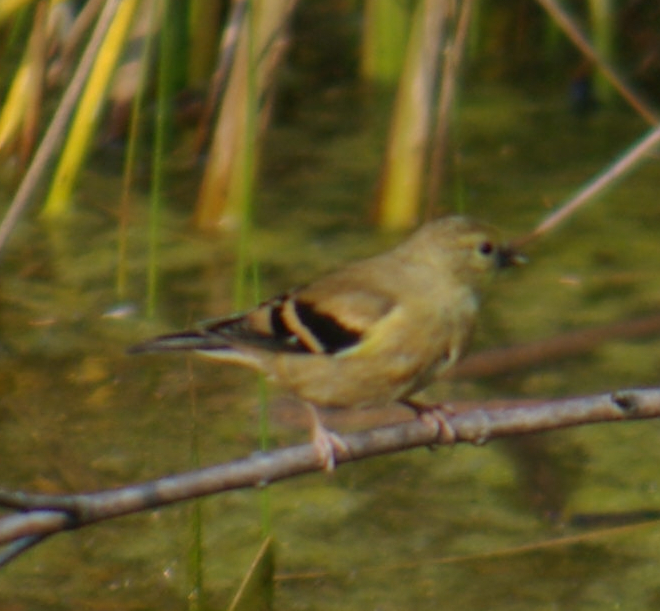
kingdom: Animalia
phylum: Chordata
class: Aves
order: Passeriformes
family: Fringillidae
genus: Spinus
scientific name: Spinus tristis
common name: American goldfinch
